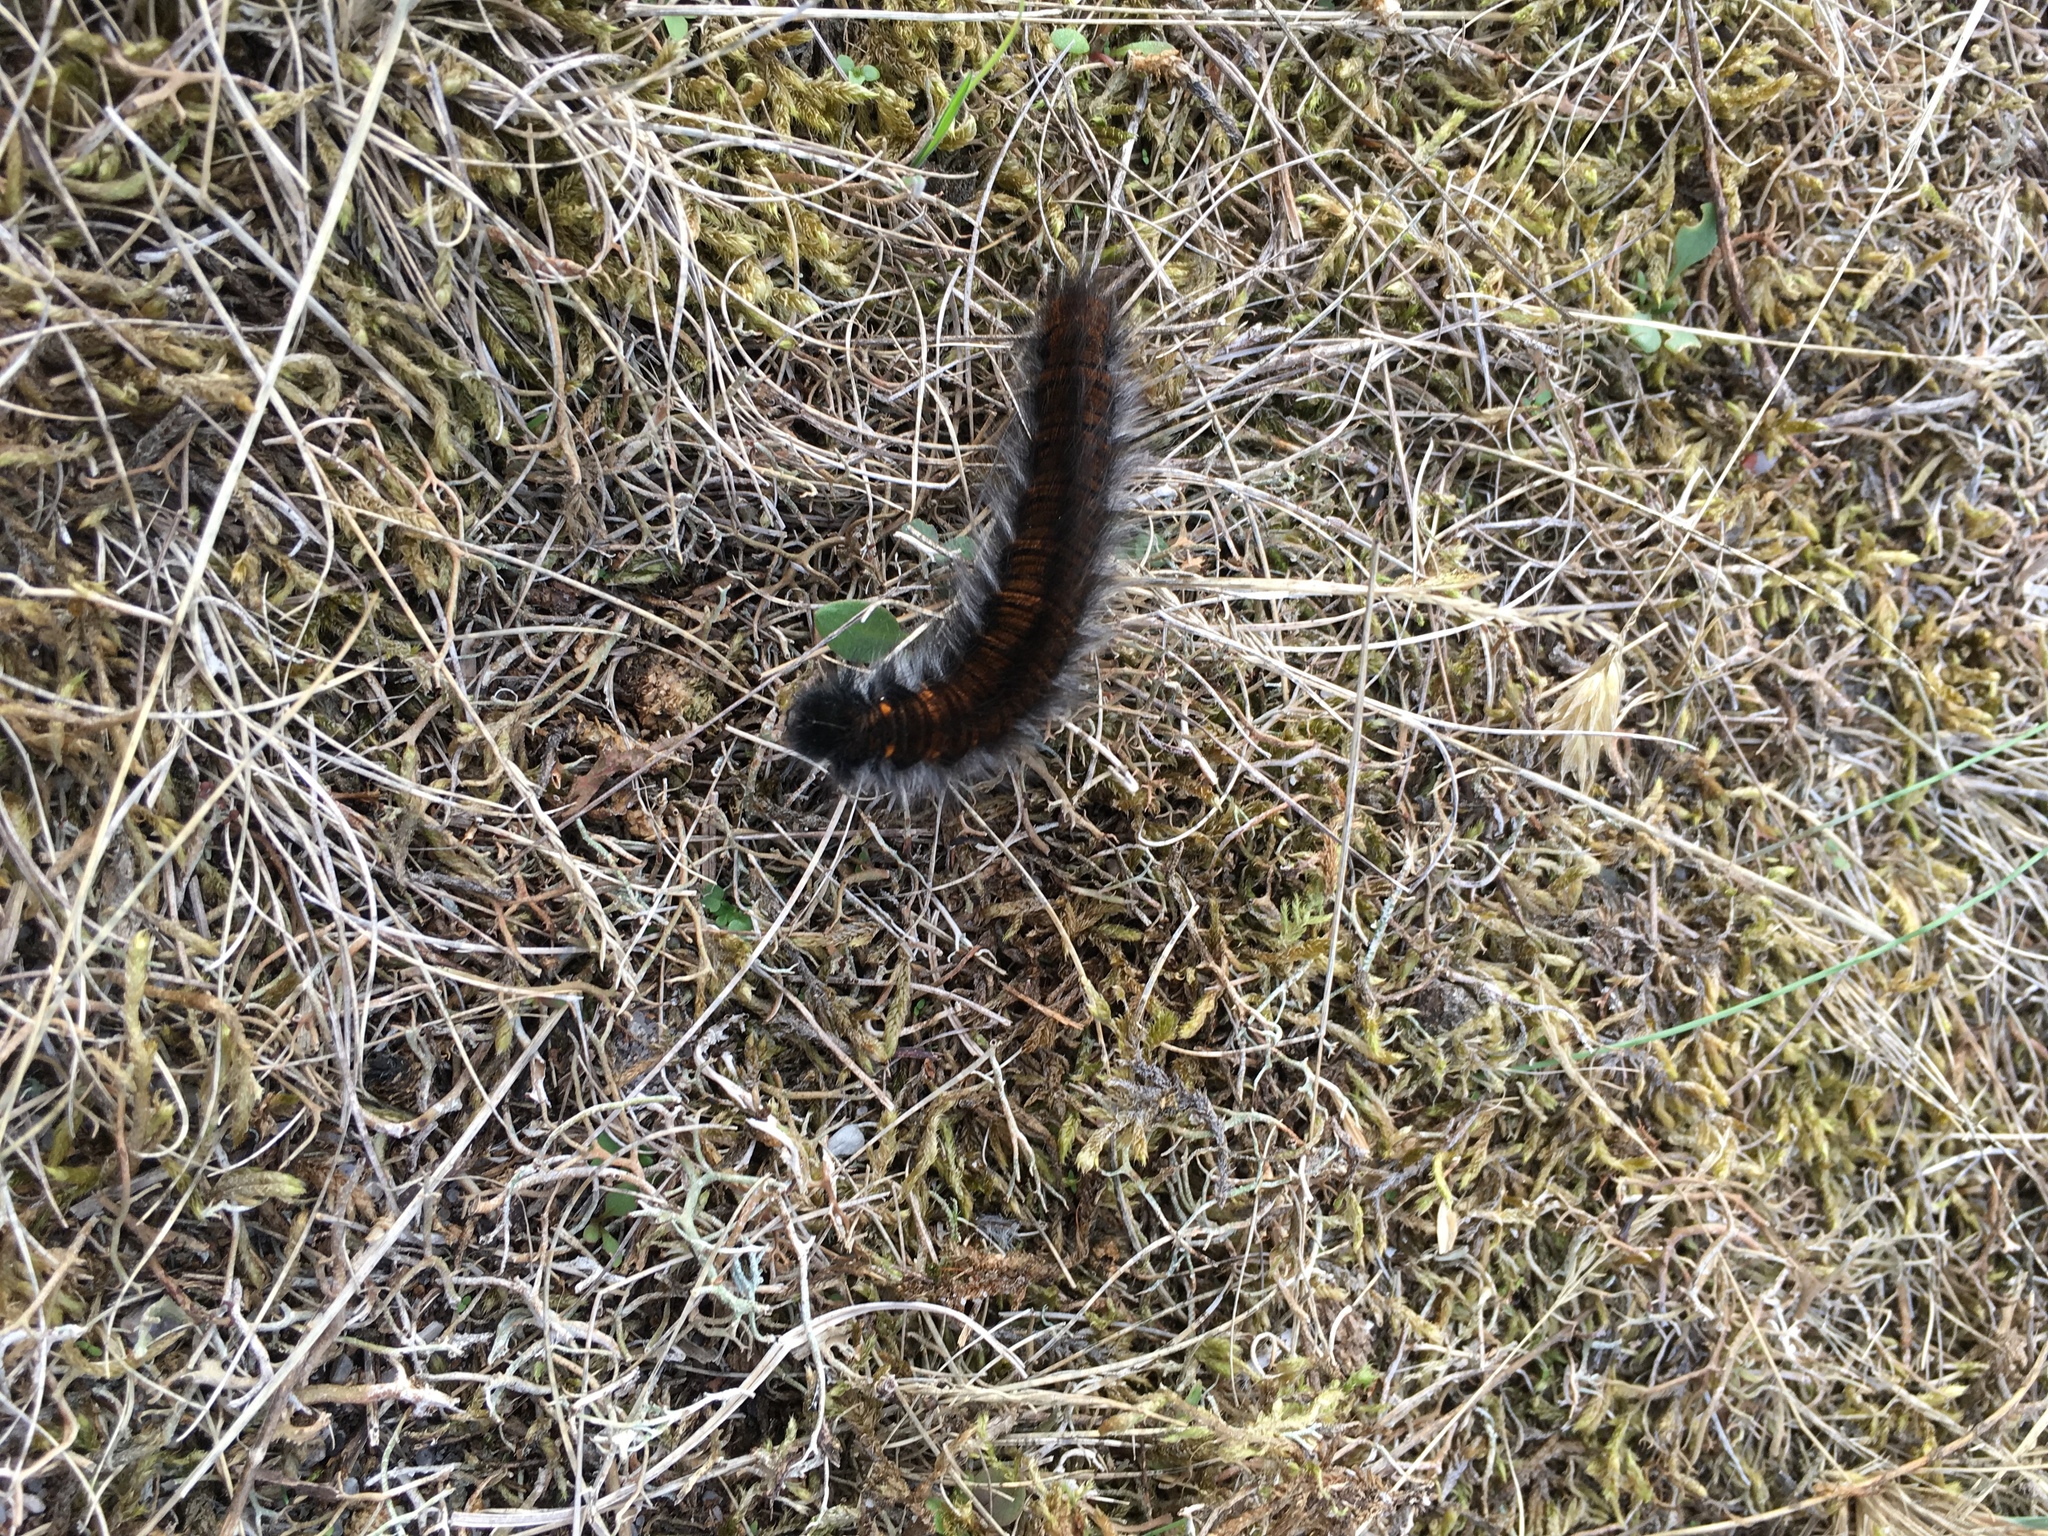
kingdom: Animalia
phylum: Arthropoda
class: Insecta
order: Lepidoptera
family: Lasiocampidae
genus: Macrothylacia
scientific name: Macrothylacia rubi
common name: Fox moth
